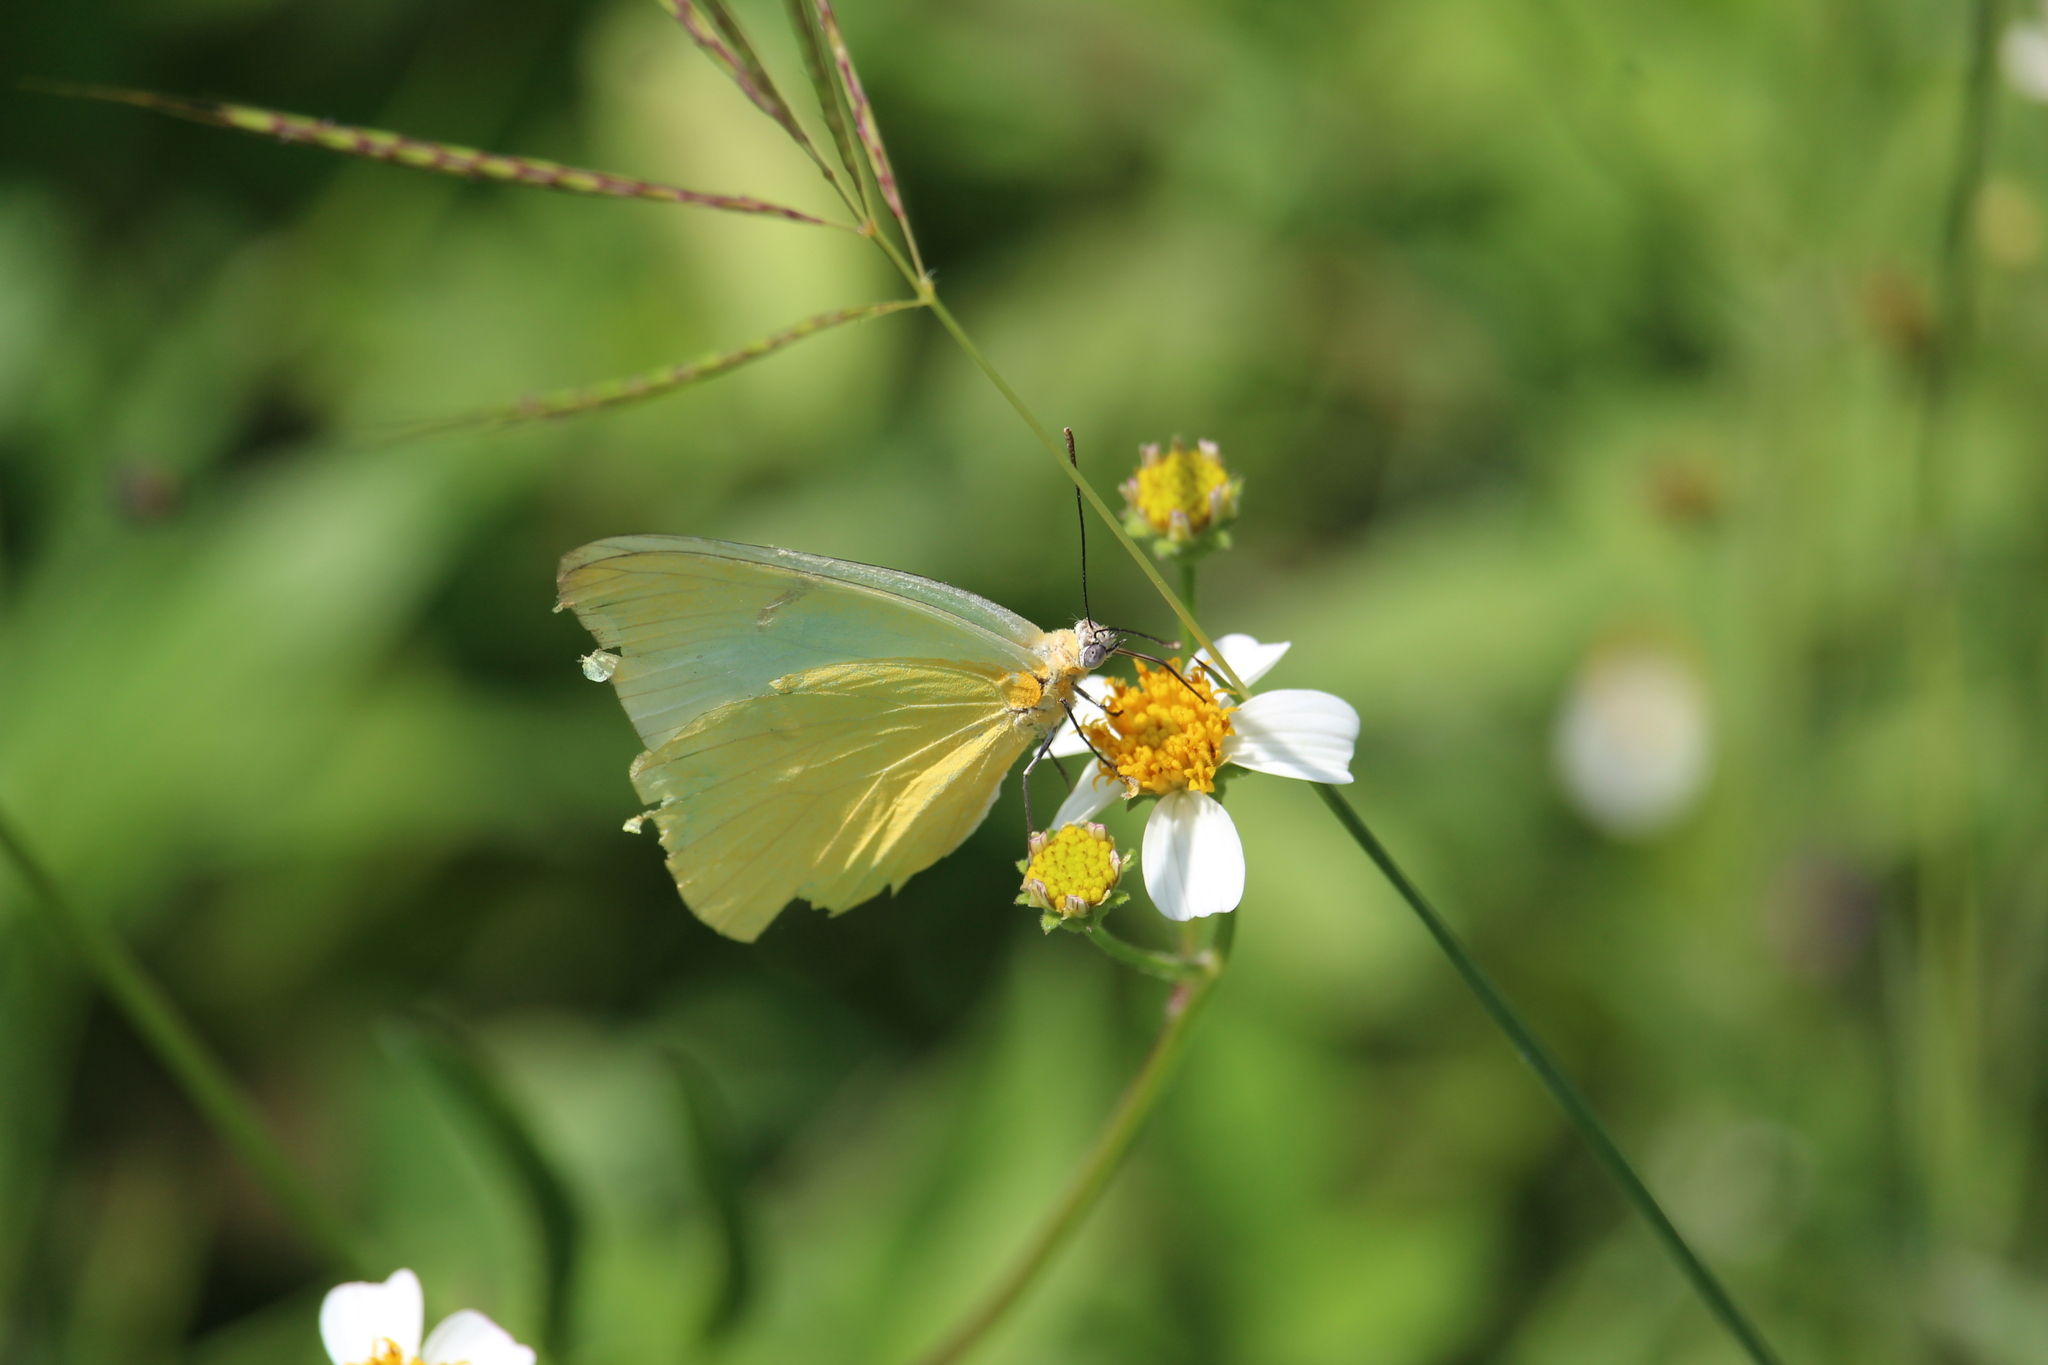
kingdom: Animalia
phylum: Arthropoda
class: Insecta
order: Lepidoptera
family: Pieridae
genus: Melete
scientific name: Melete lycimnia
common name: Common melwhite
